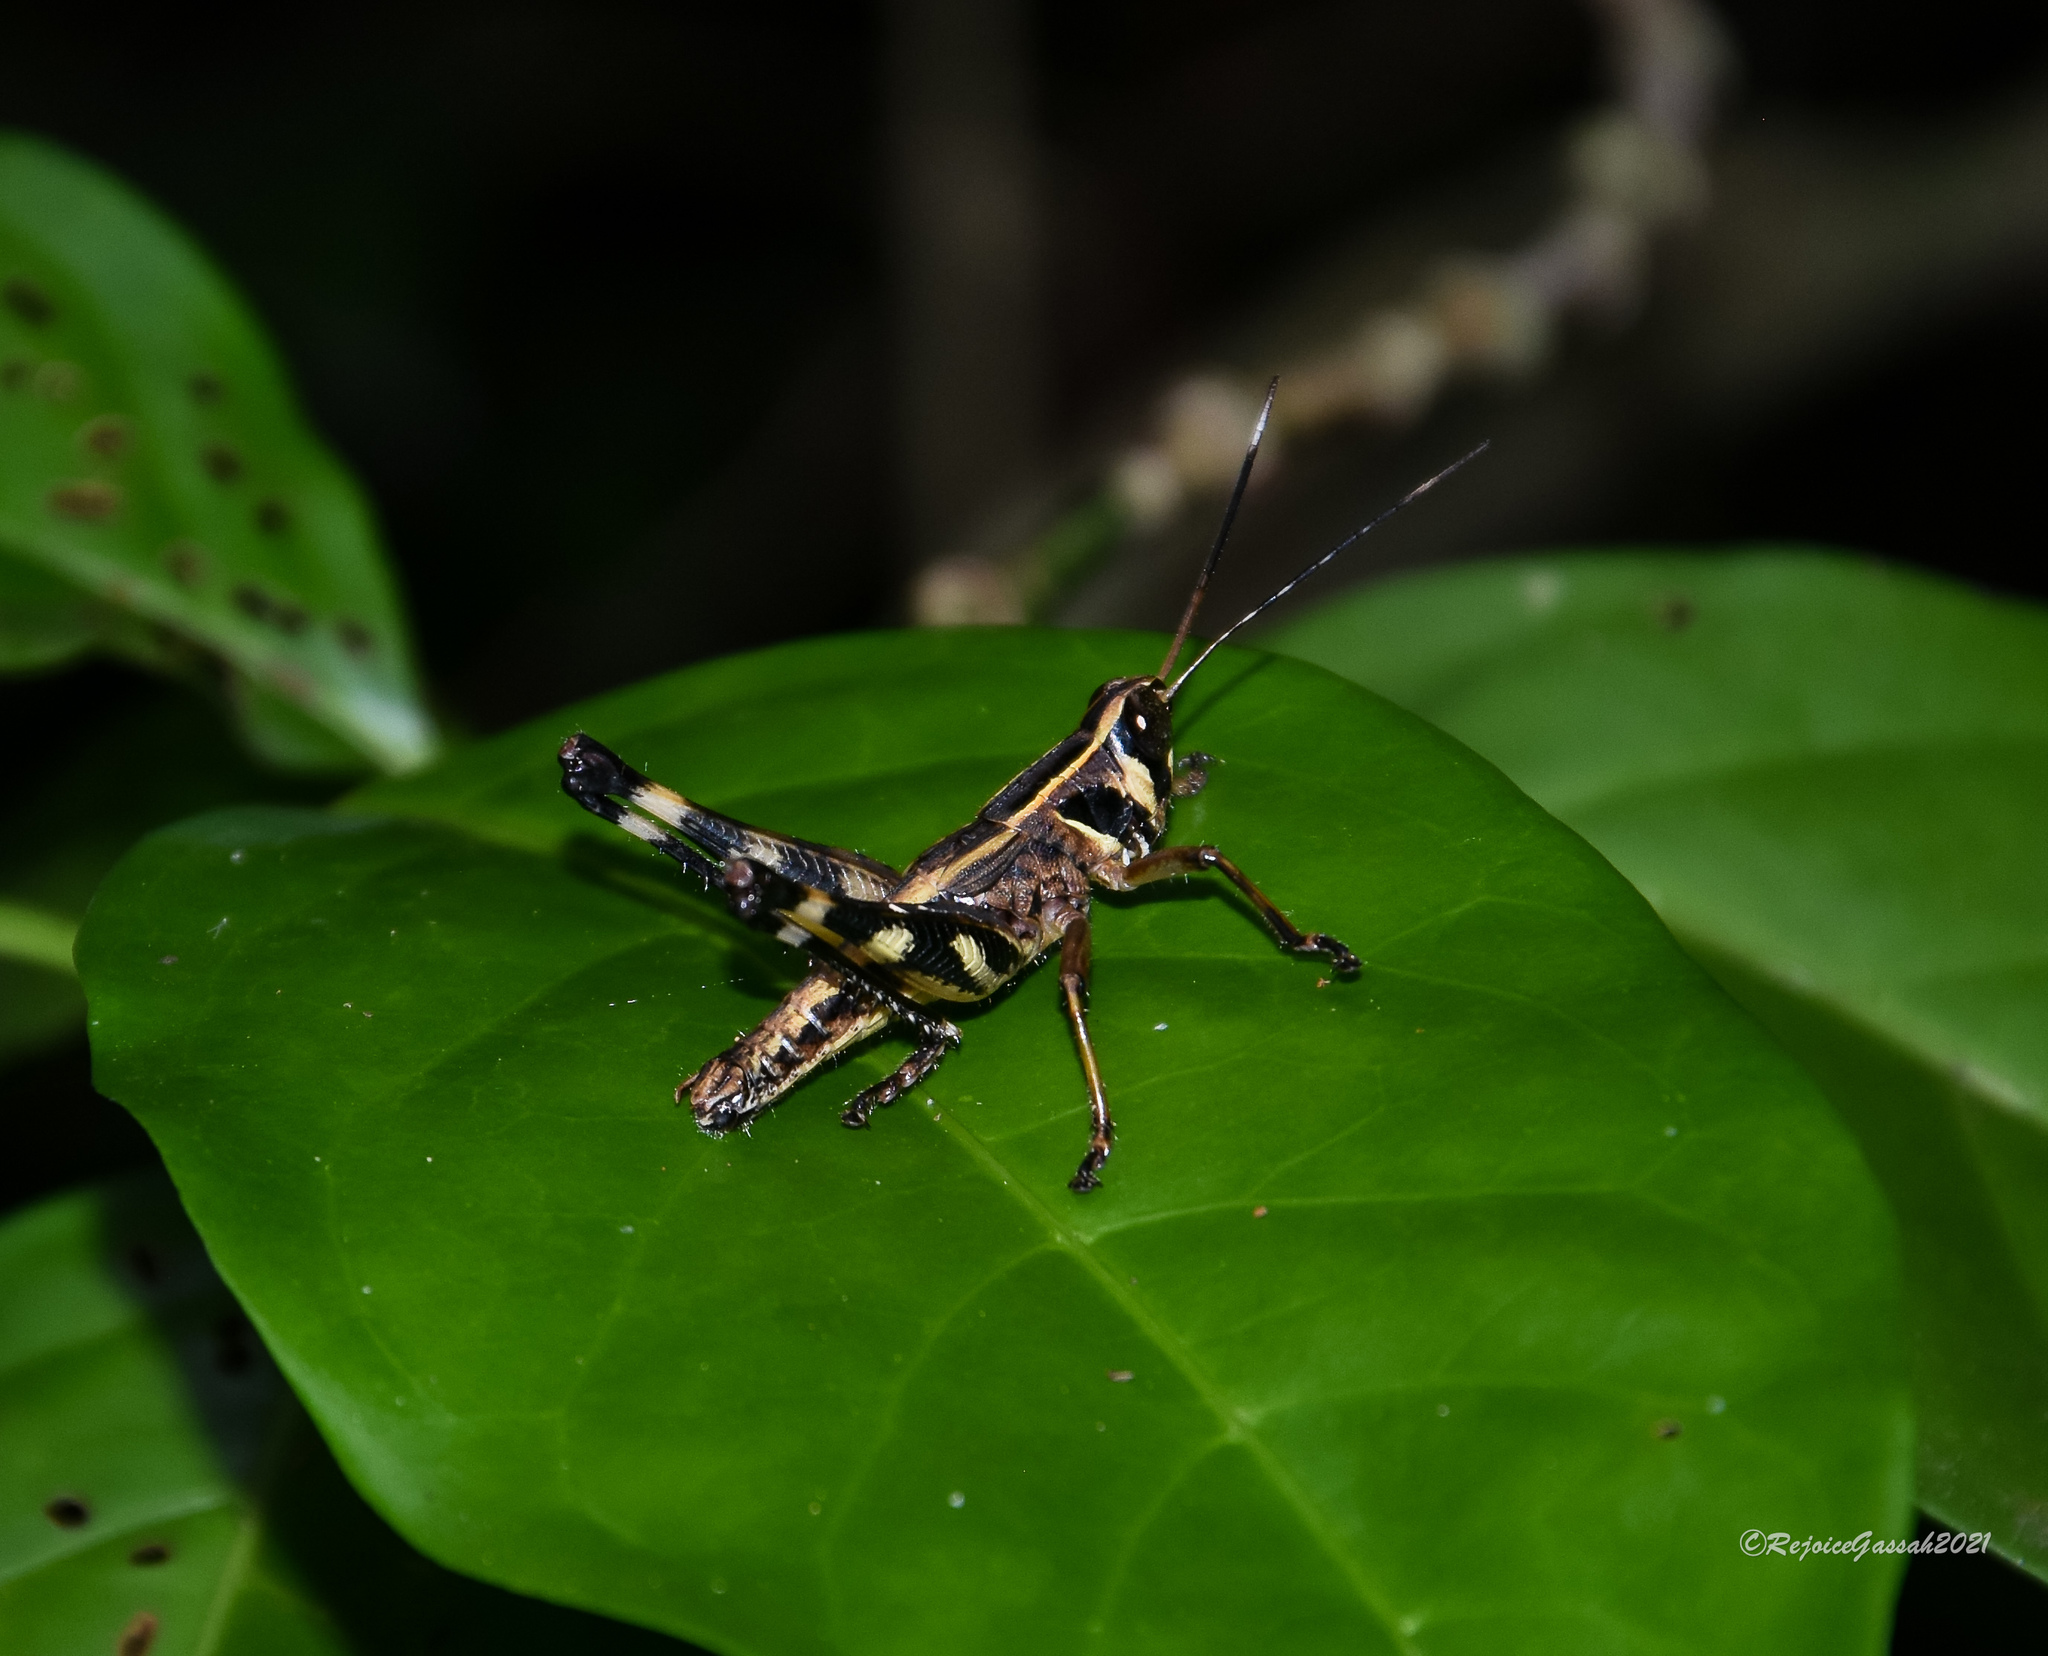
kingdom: Animalia
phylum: Arthropoda
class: Insecta
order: Orthoptera
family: Acrididae
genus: Burmacris
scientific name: Burmacris charlottae
